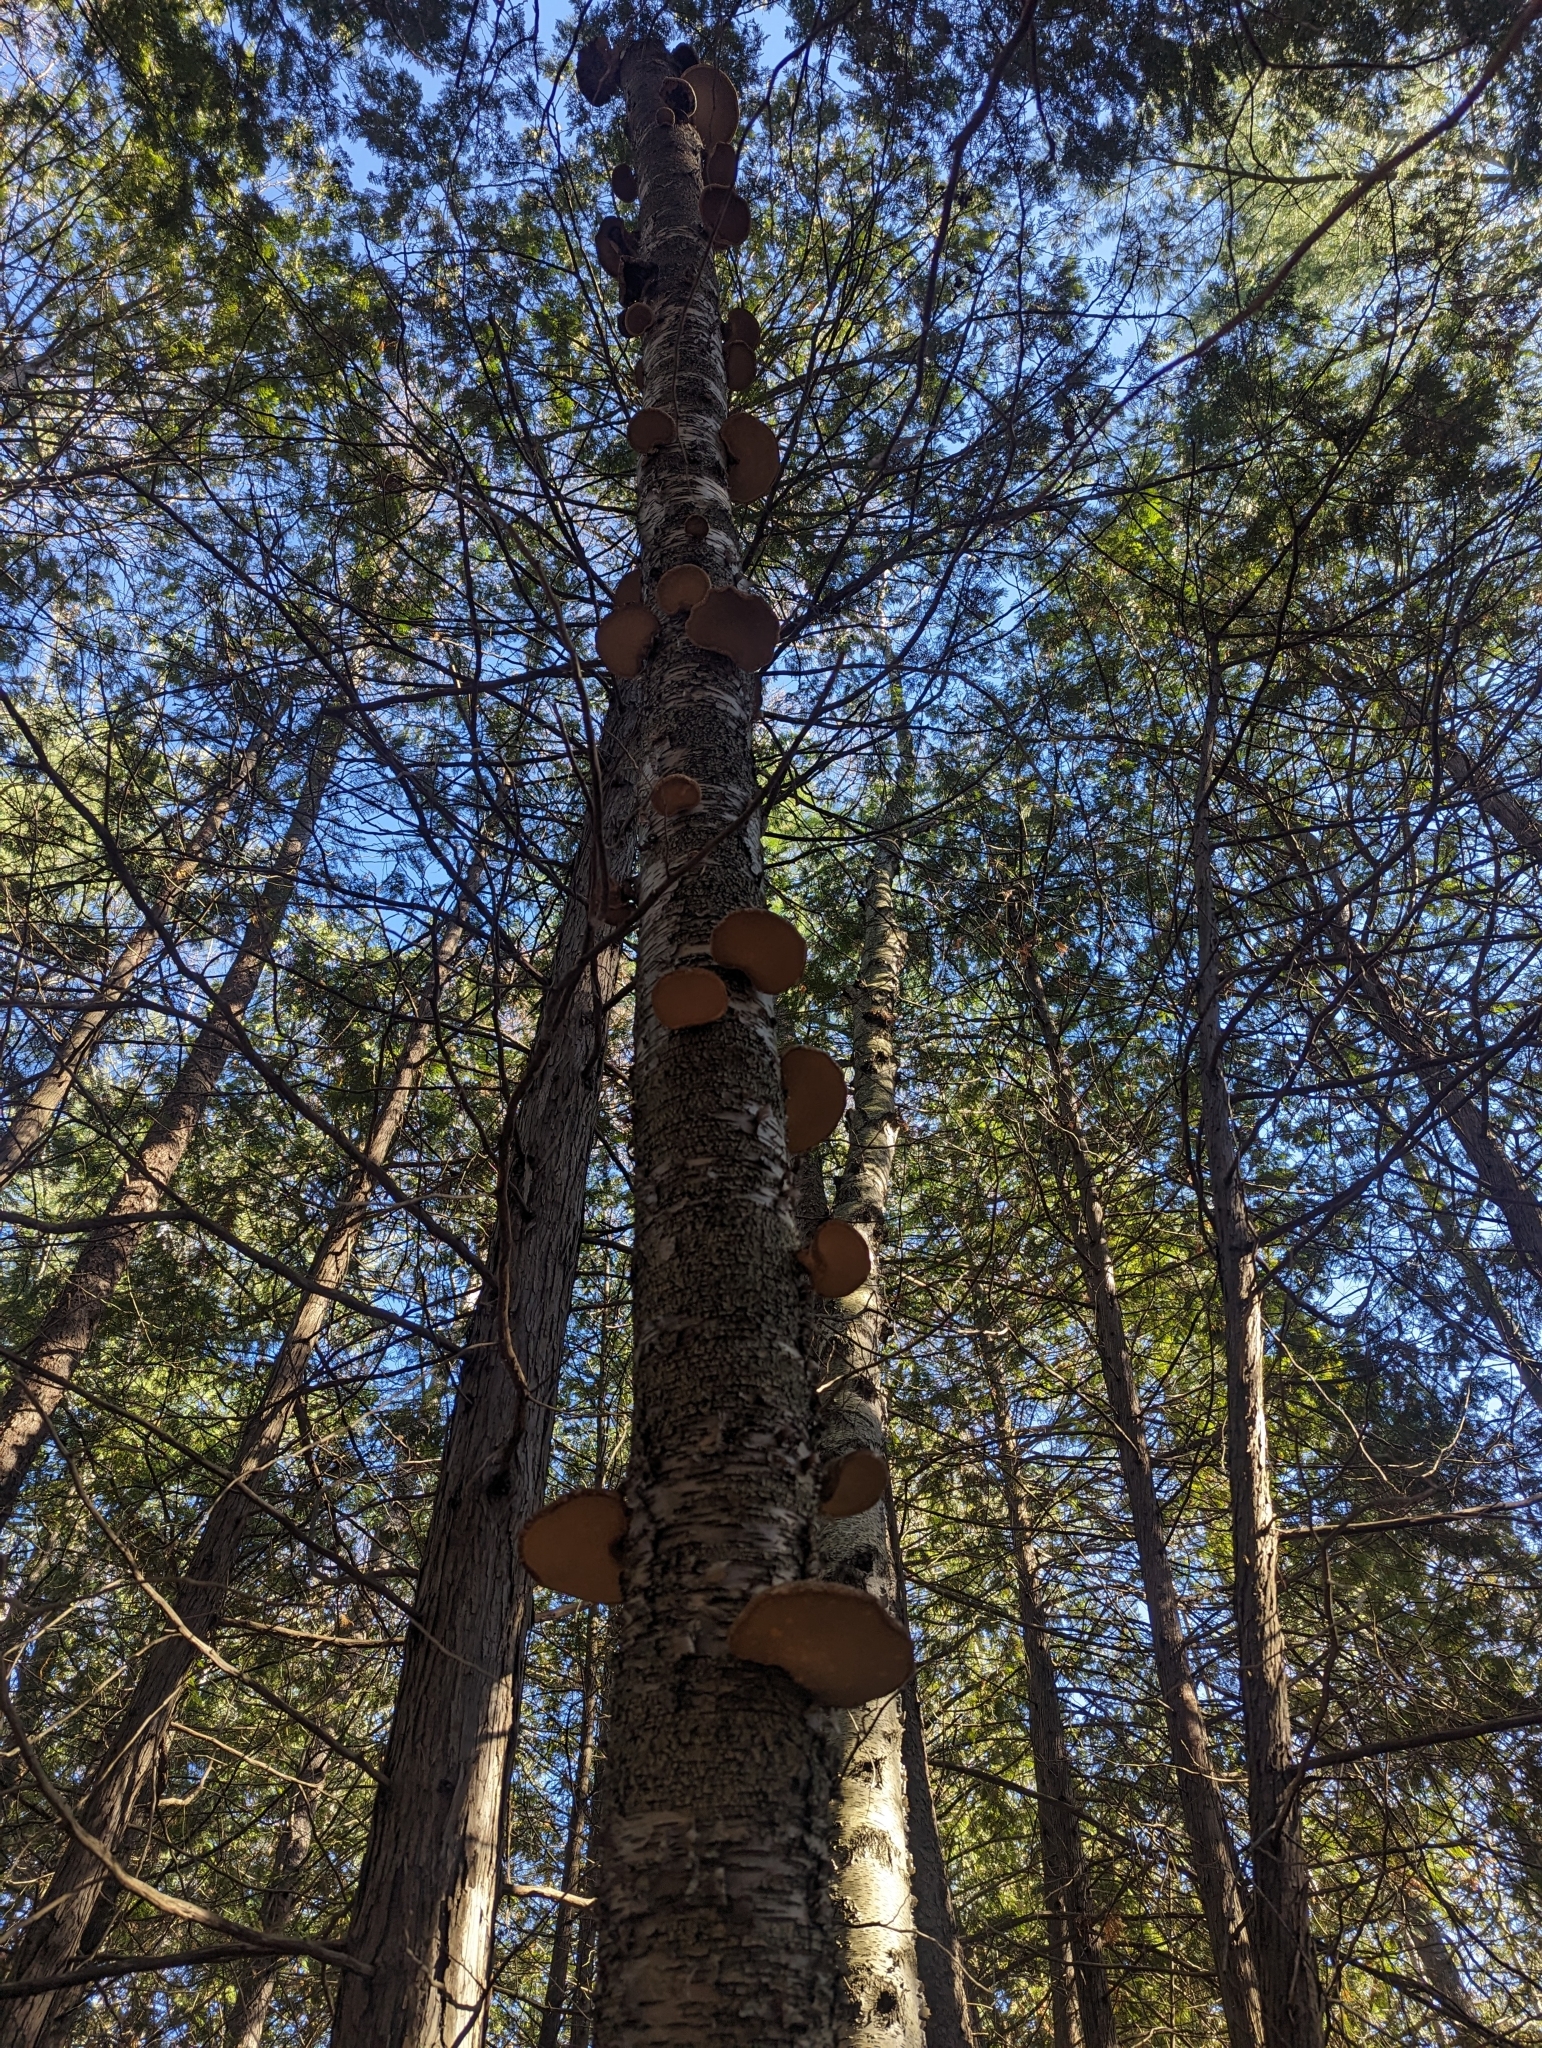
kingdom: Fungi
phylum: Basidiomycota
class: Agaricomycetes
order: Polyporales
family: Fomitopsidaceae
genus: Fomitopsis
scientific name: Fomitopsis betulina
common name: Birch polypore
